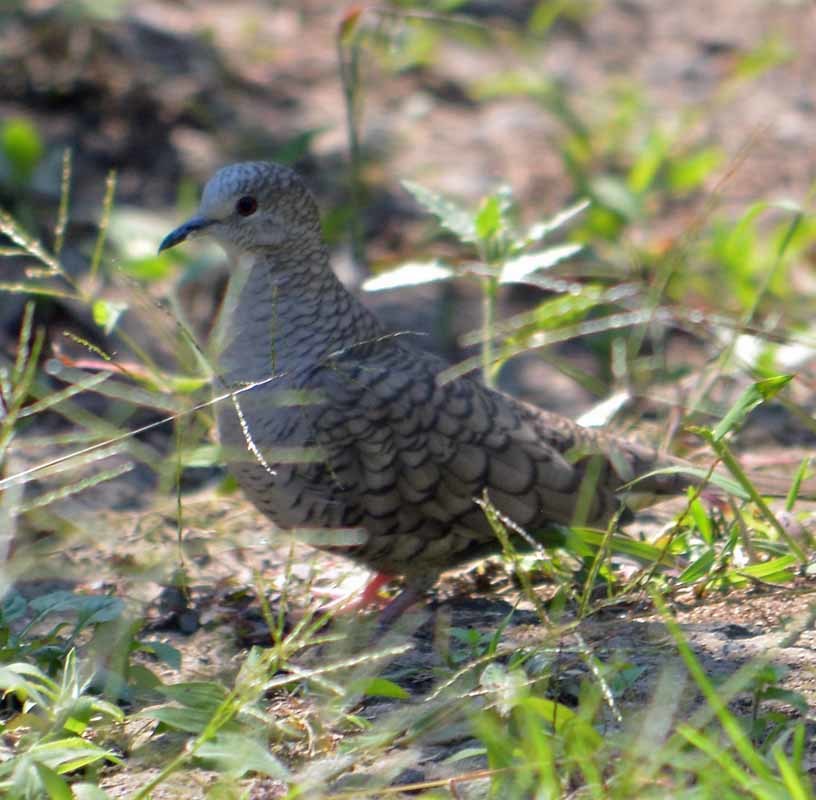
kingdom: Animalia
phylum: Chordata
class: Aves
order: Columbiformes
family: Columbidae
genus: Columbina
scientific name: Columbina inca
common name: Inca dove
